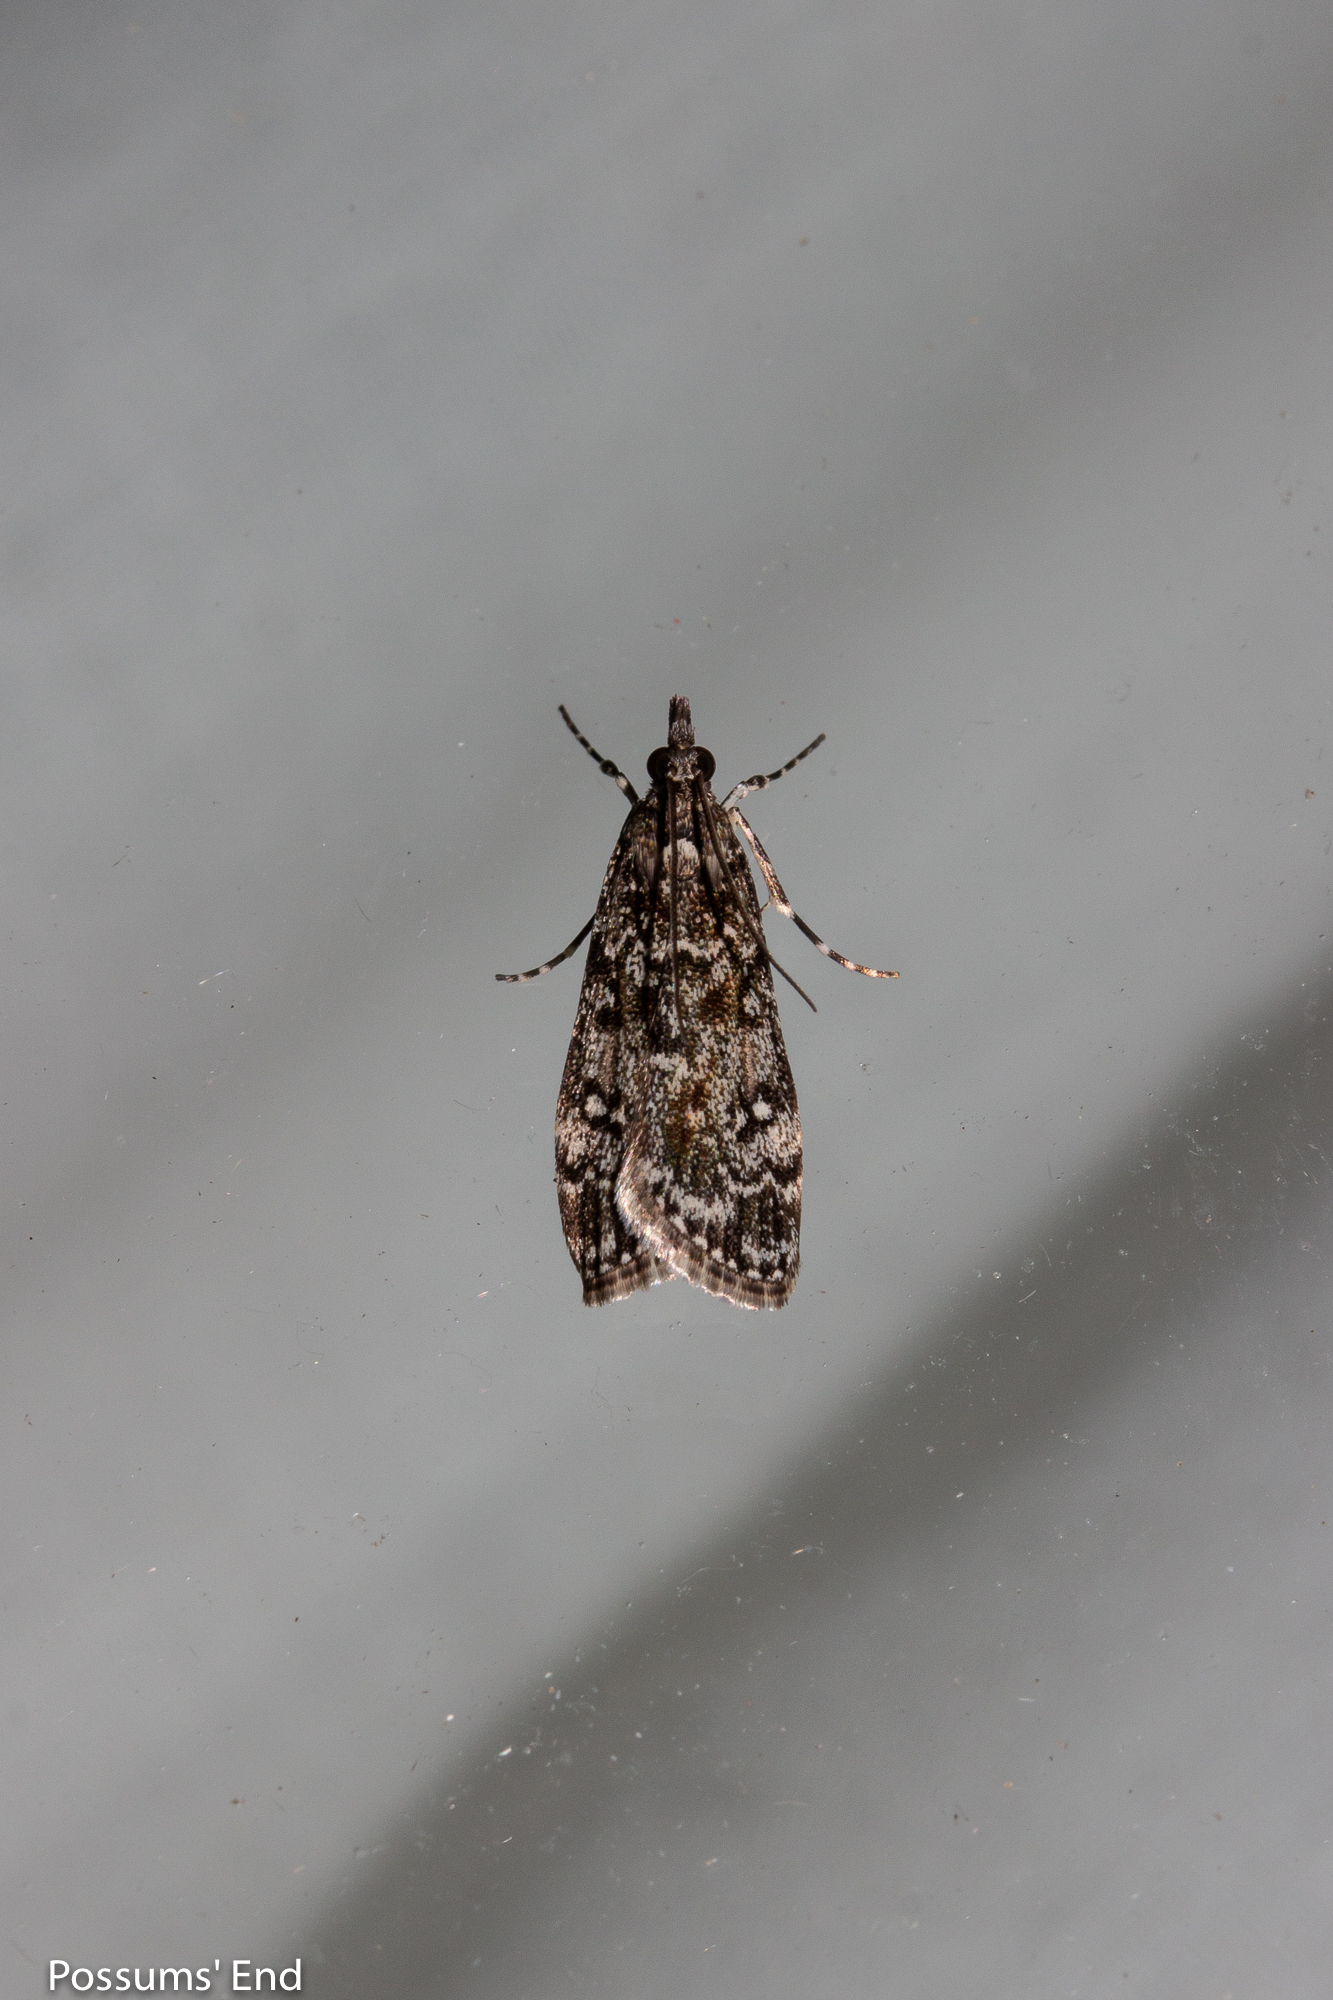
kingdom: Animalia
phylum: Arthropoda
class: Insecta
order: Lepidoptera
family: Crambidae
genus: Eudonia
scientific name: Eudonia philerga
